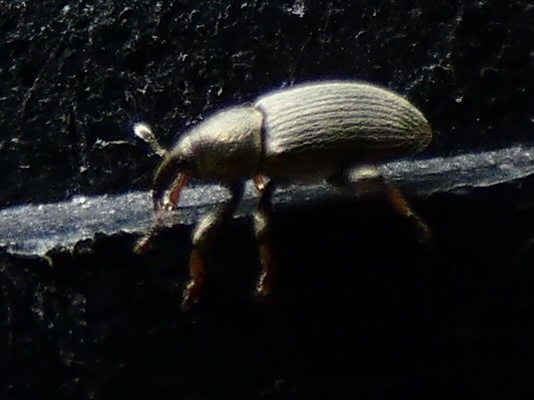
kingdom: Animalia
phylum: Arthropoda
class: Insecta
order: Coleoptera
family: Curculionidae
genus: Tychius
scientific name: Tychius picirostris
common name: Clover seed weevil
